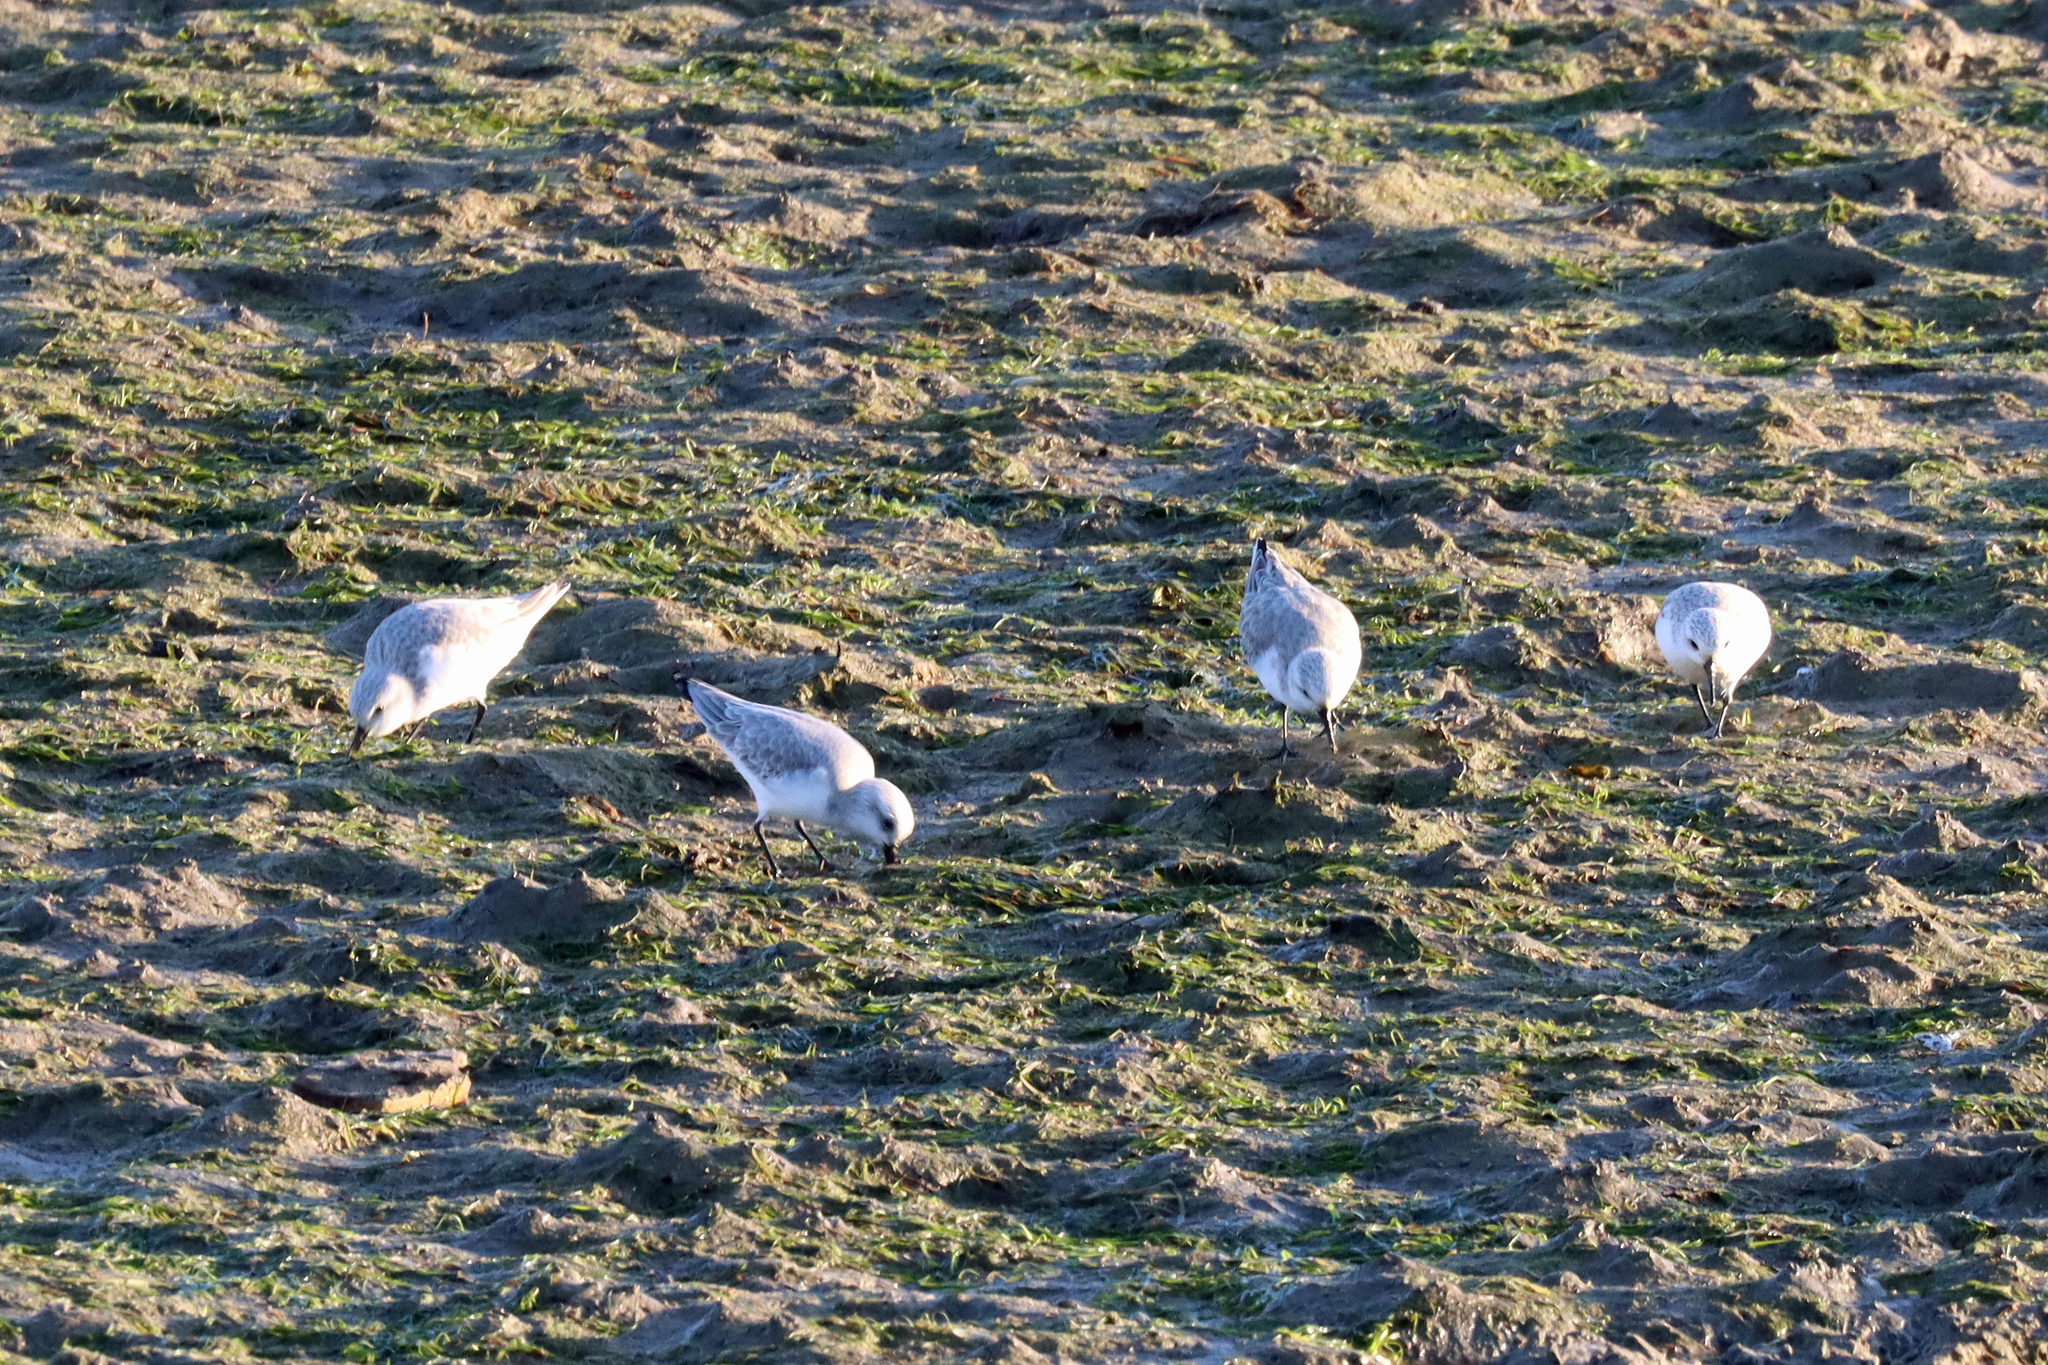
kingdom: Animalia
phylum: Chordata
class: Aves
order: Charadriiformes
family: Scolopacidae
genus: Calidris
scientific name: Calidris alba
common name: Sanderling
